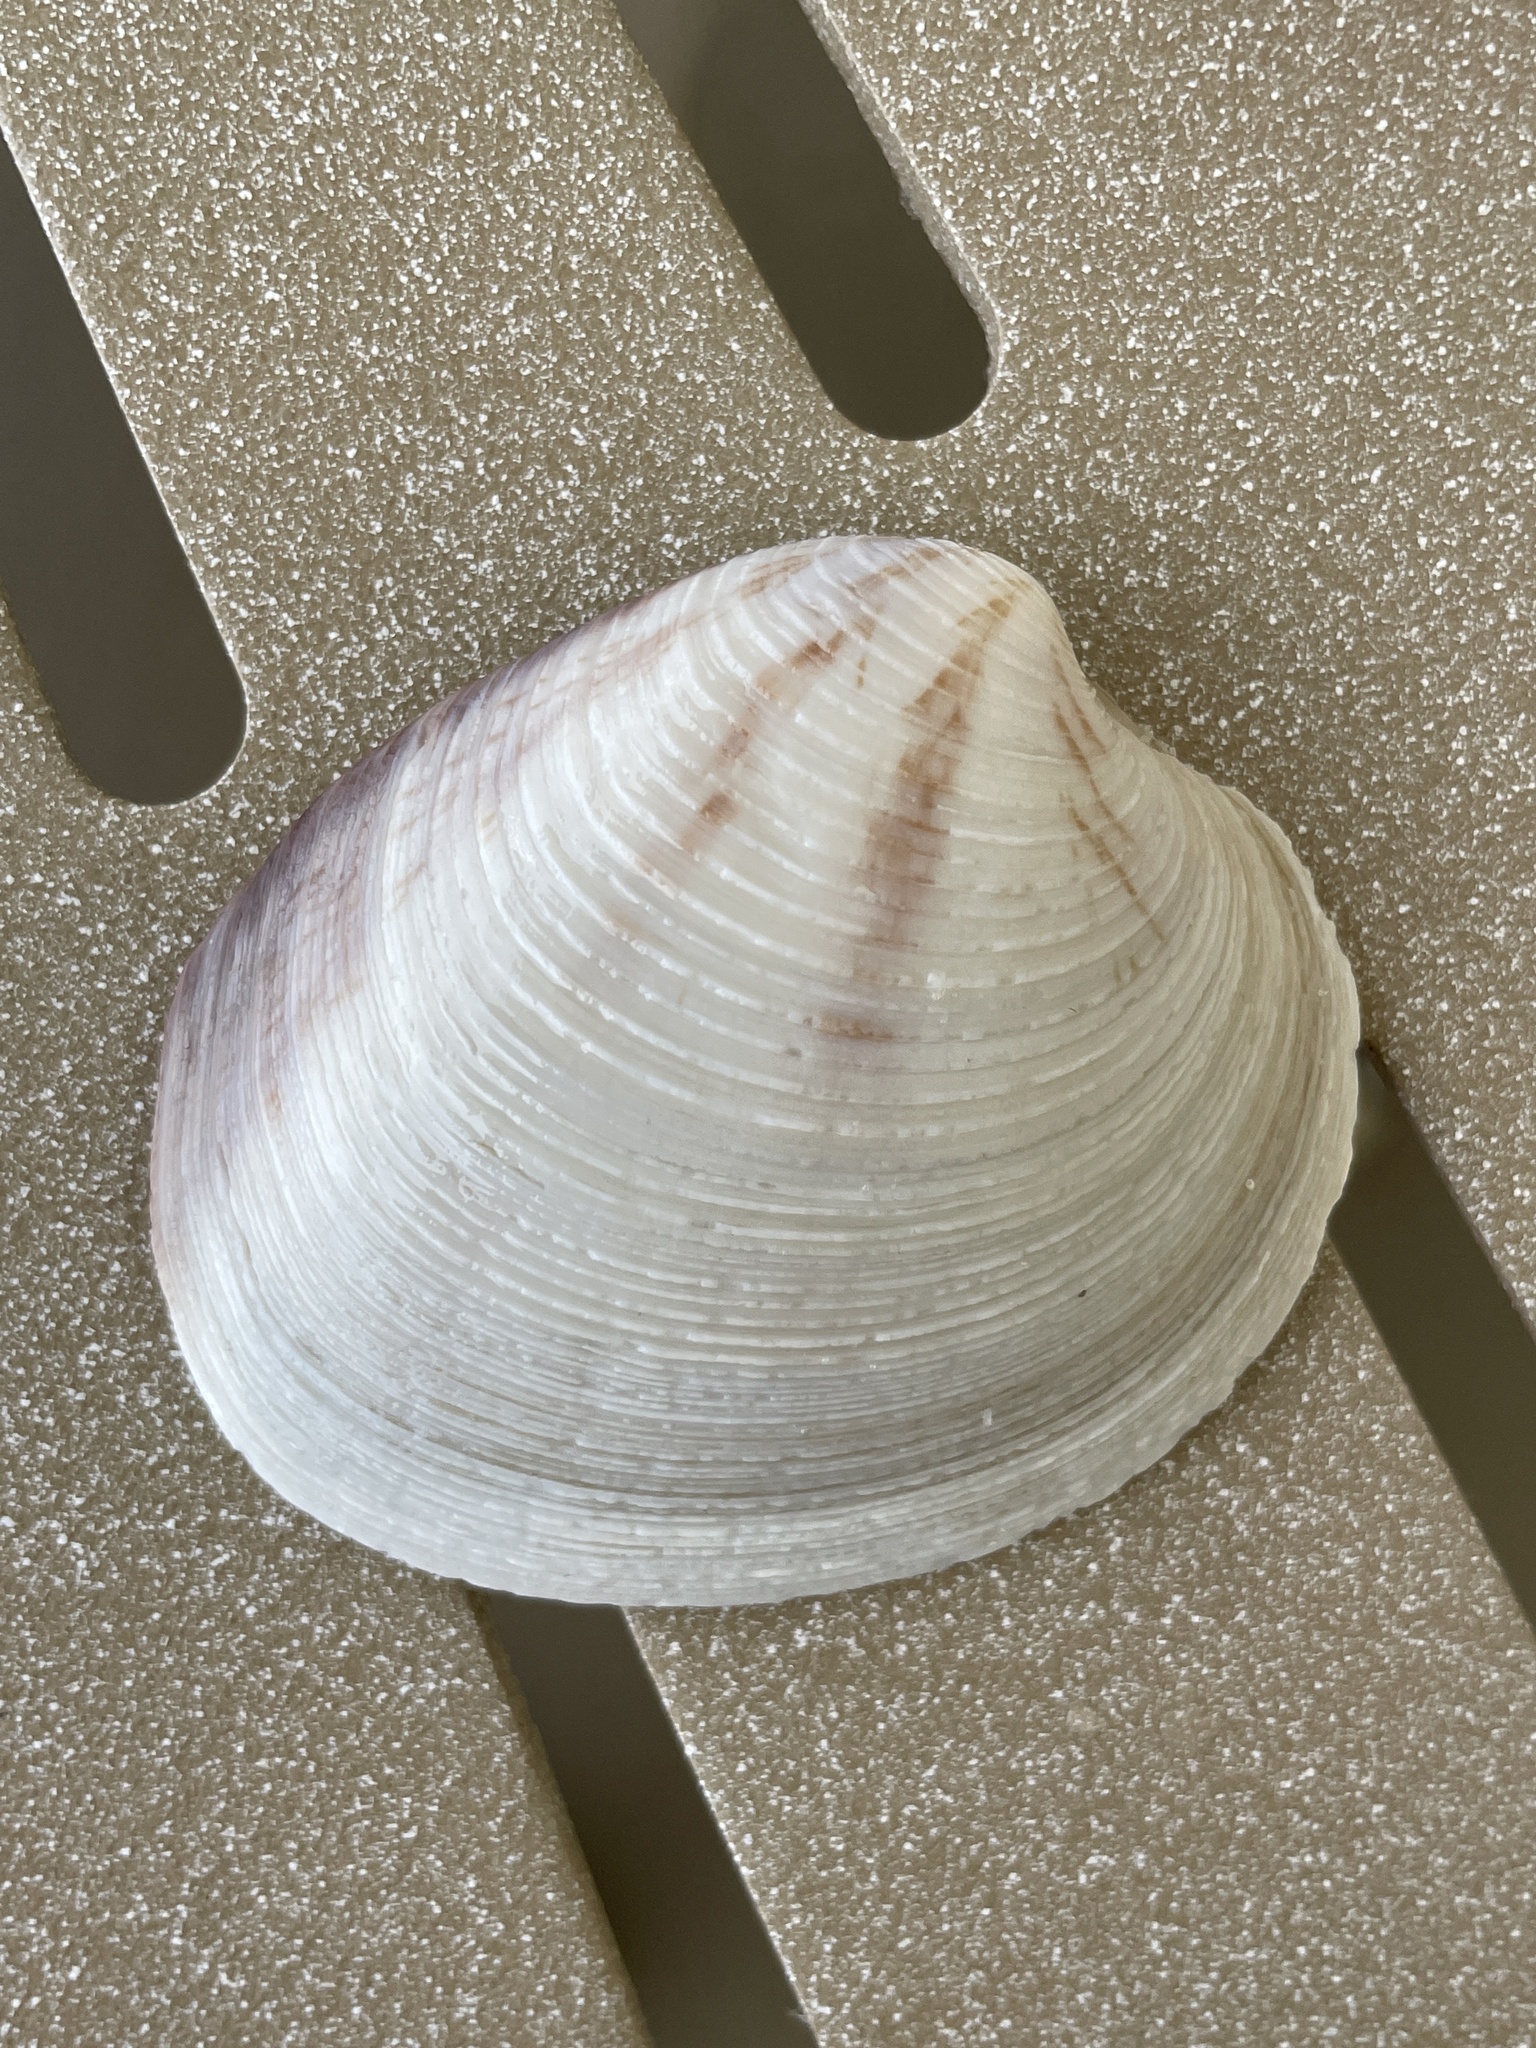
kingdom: Animalia
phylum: Mollusca
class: Bivalvia
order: Venerida
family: Veneridae
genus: Mercenaria
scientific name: Mercenaria campechiensis
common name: Südliche quahog-muschel
